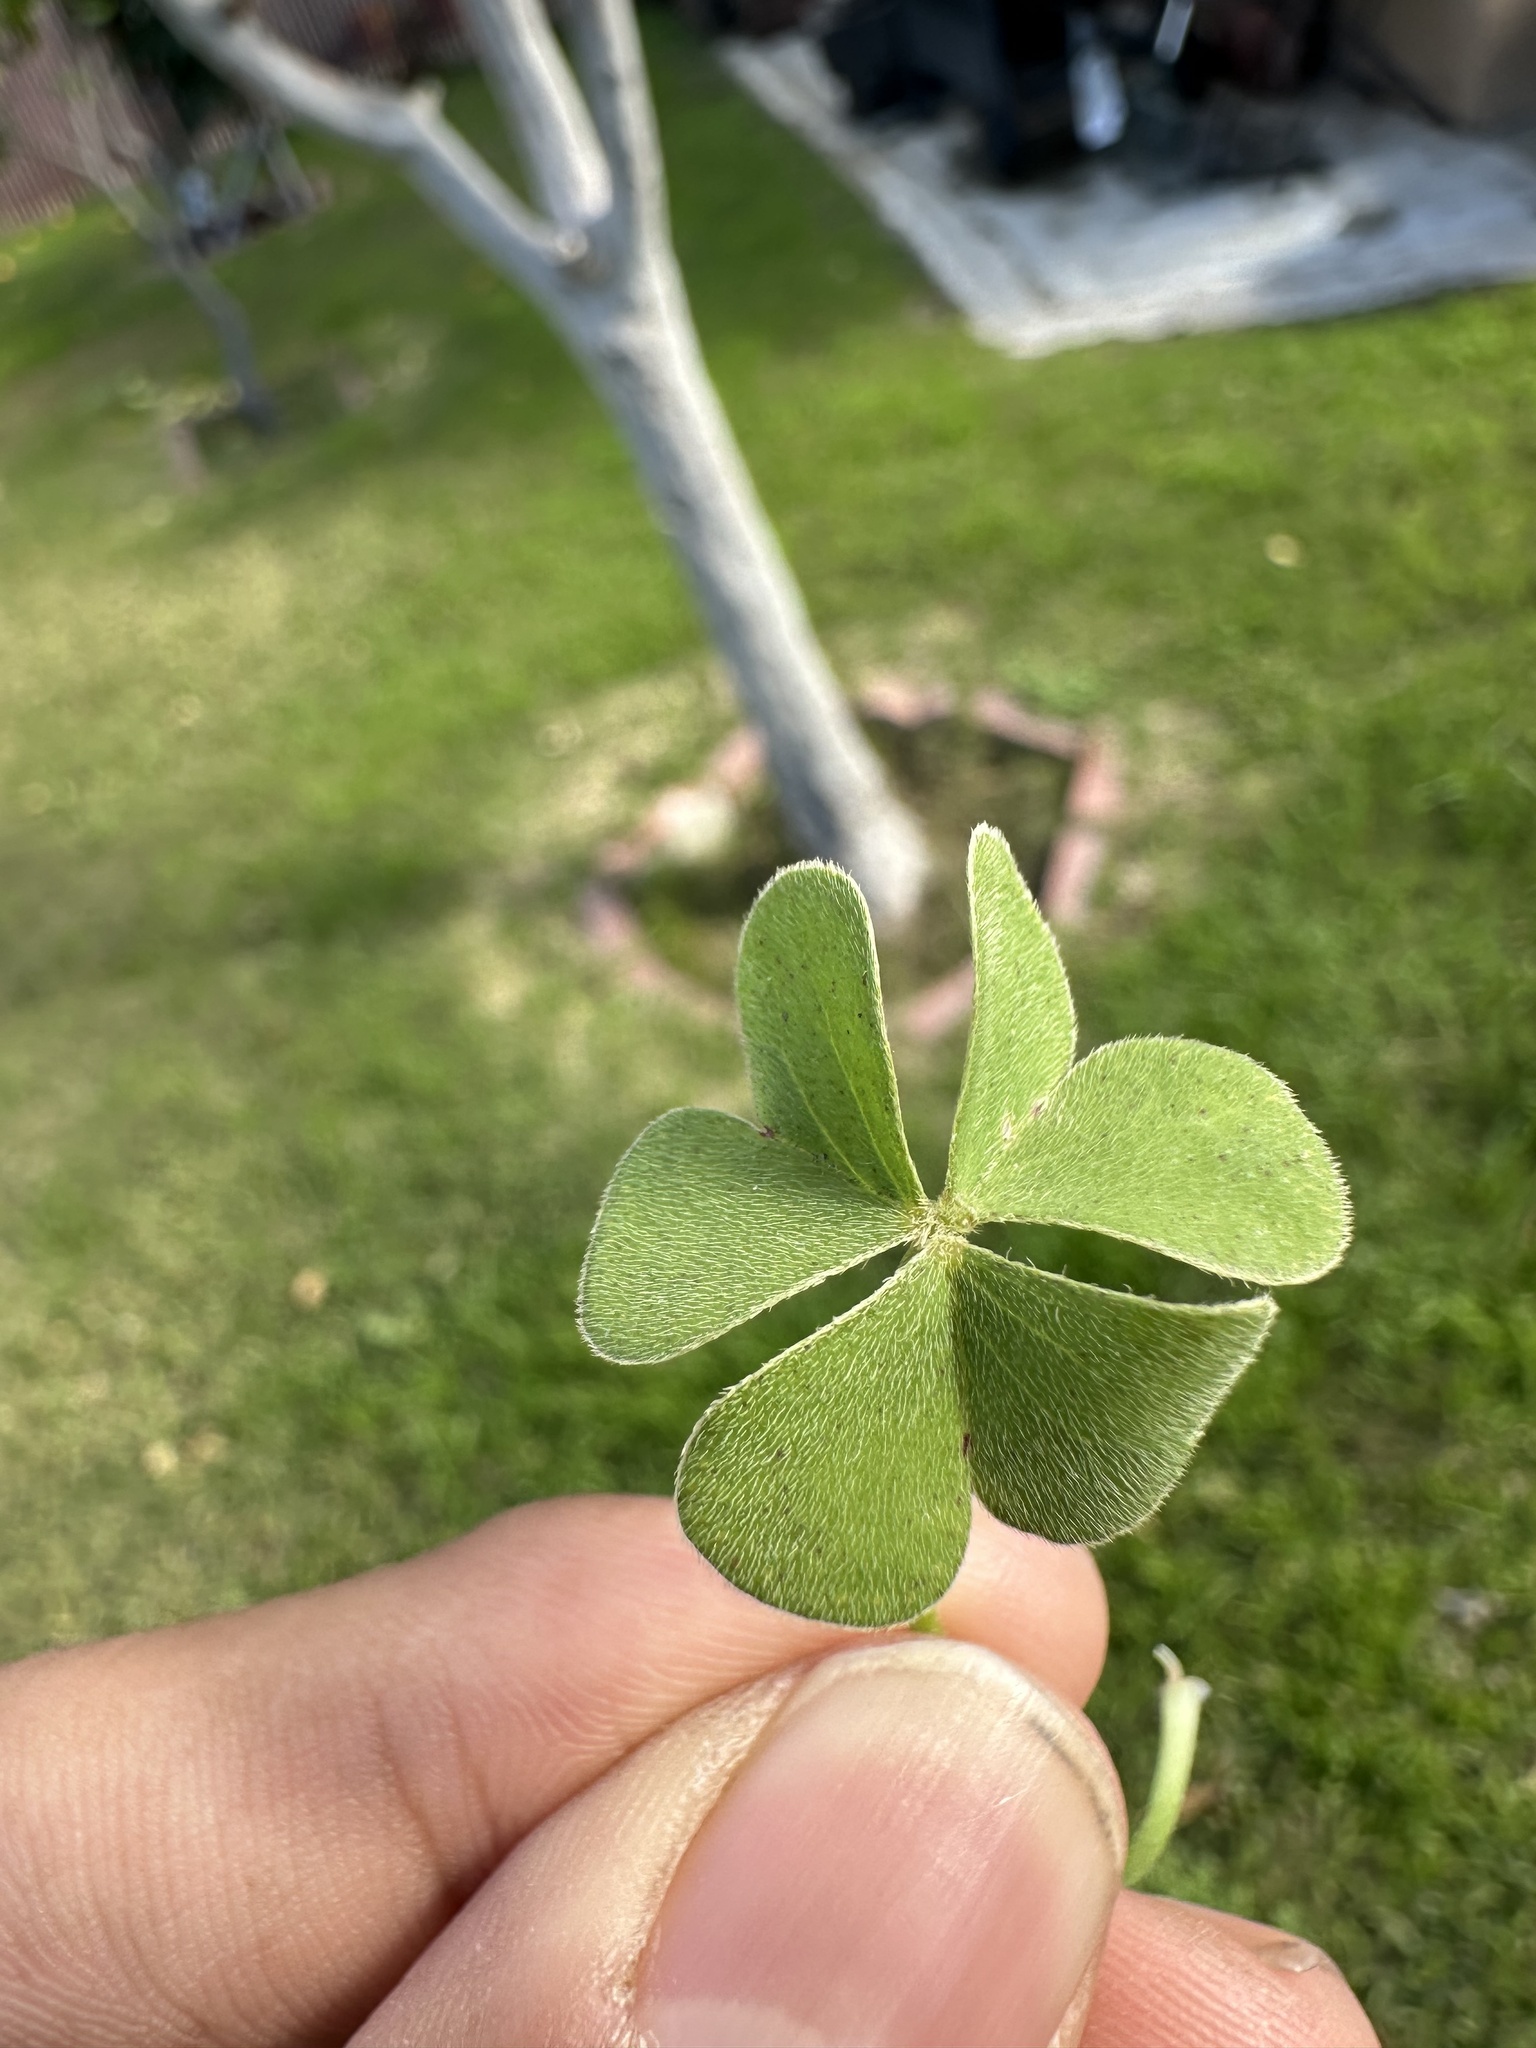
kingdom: Plantae
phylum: Tracheophyta
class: Magnoliopsida
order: Oxalidales
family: Oxalidaceae
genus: Oxalis
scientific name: Oxalis articulata
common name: Pink-sorrel
